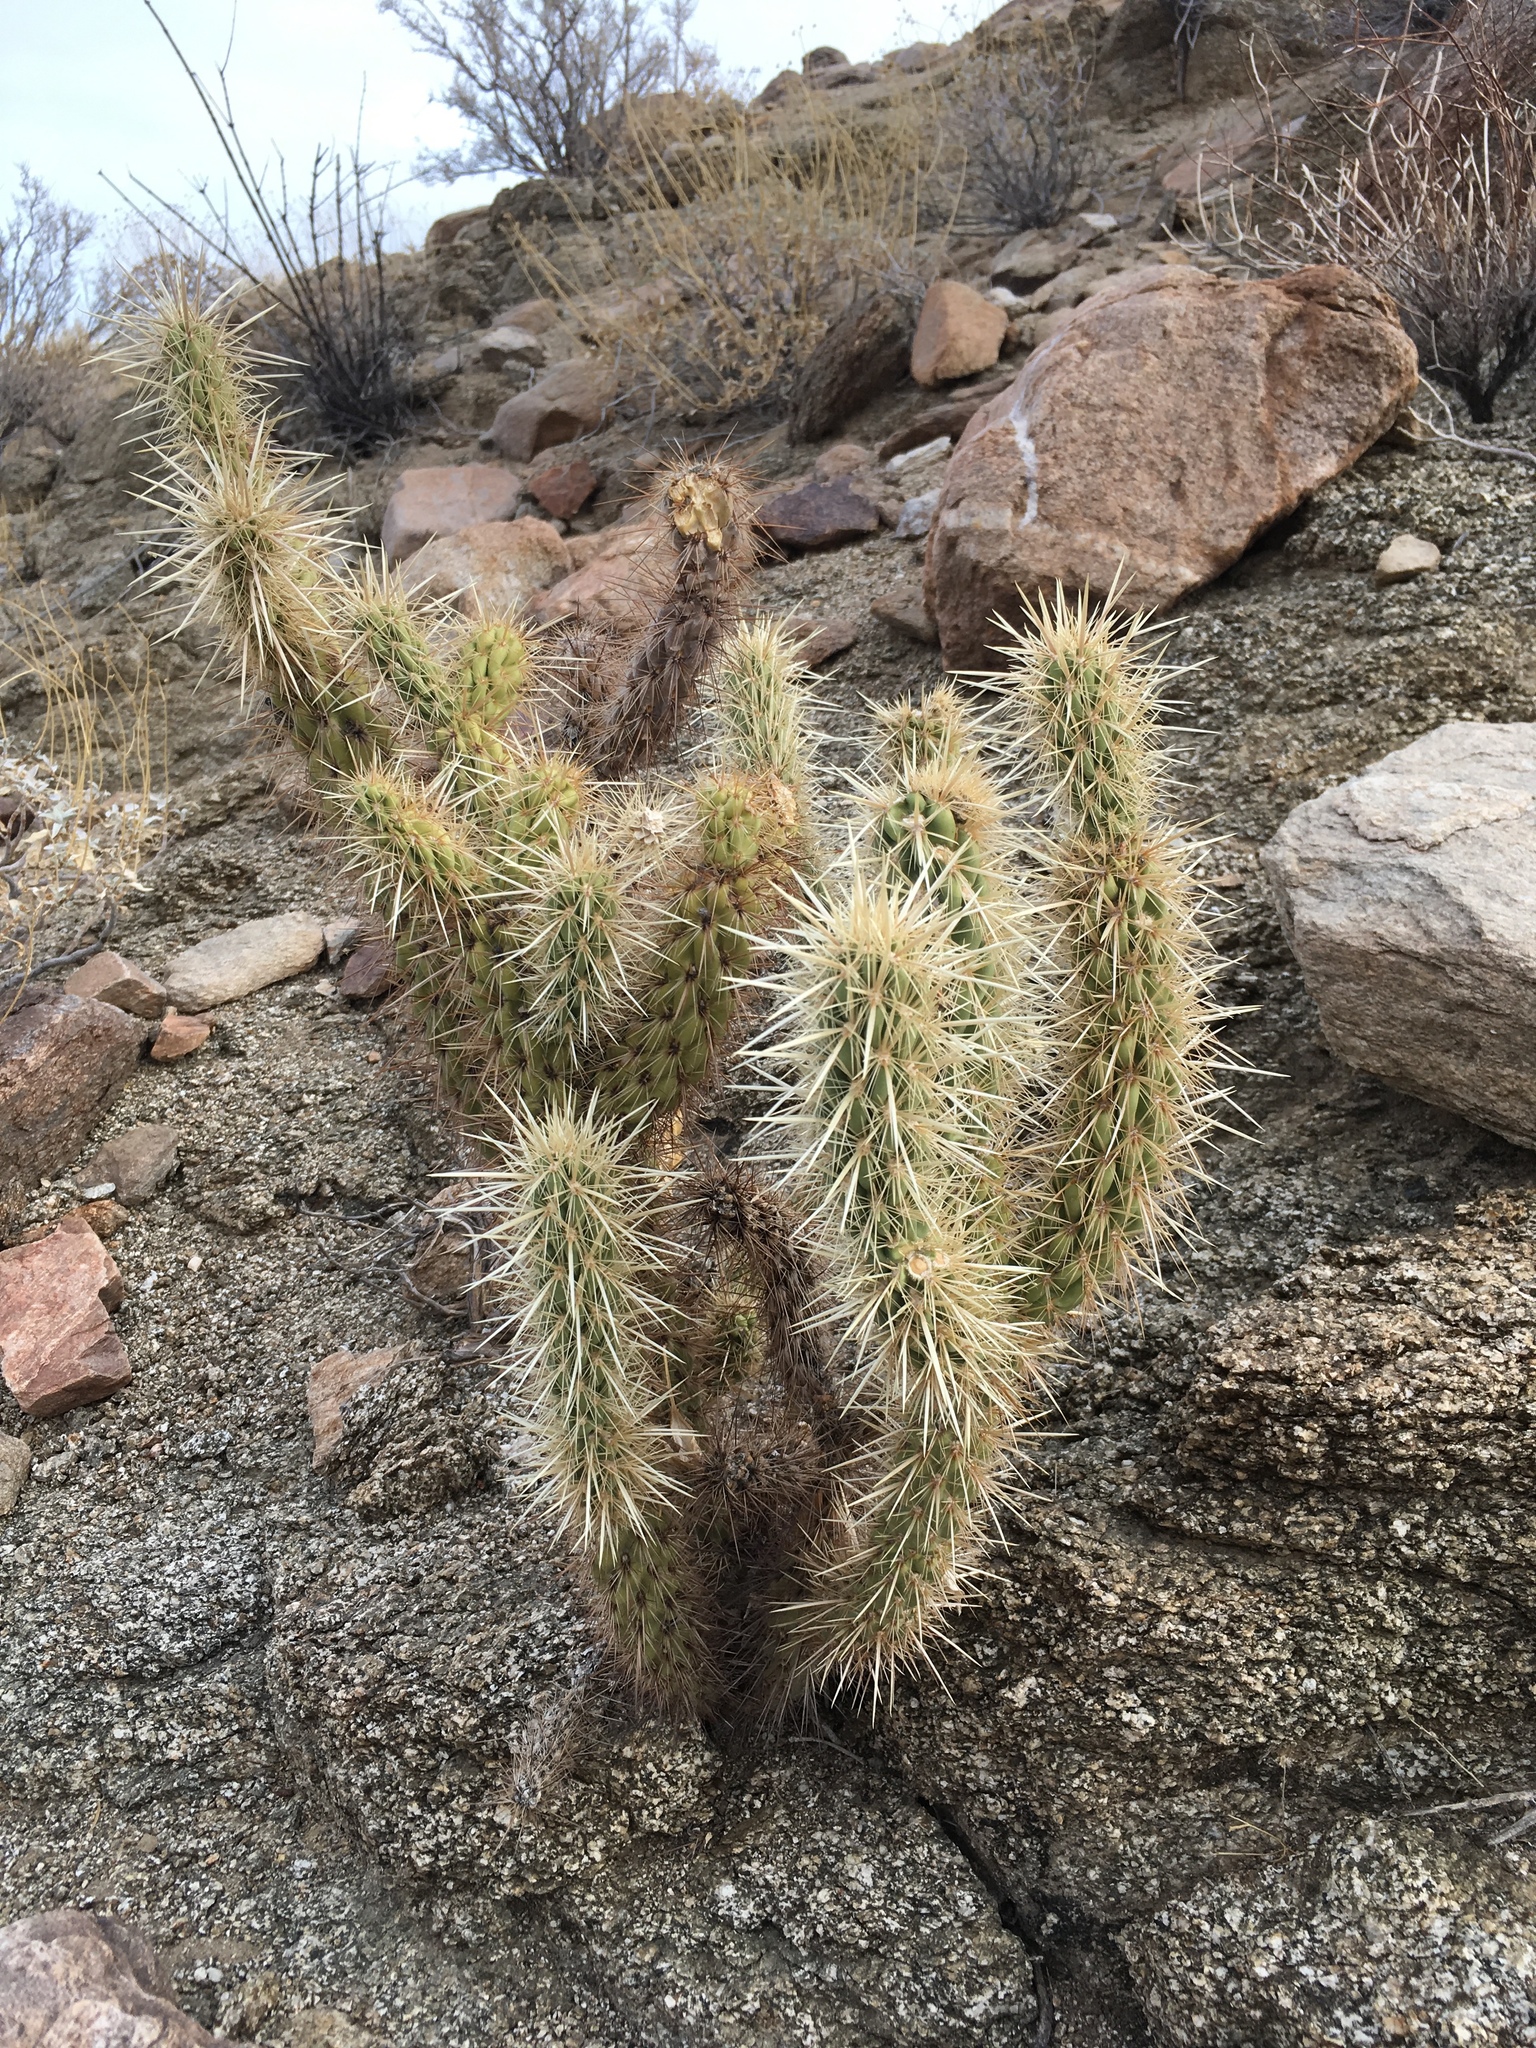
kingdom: Plantae
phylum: Tracheophyta
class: Magnoliopsida
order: Caryophyllales
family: Cactaceae
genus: Cylindropuntia
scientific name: Cylindropuntia ganderi
